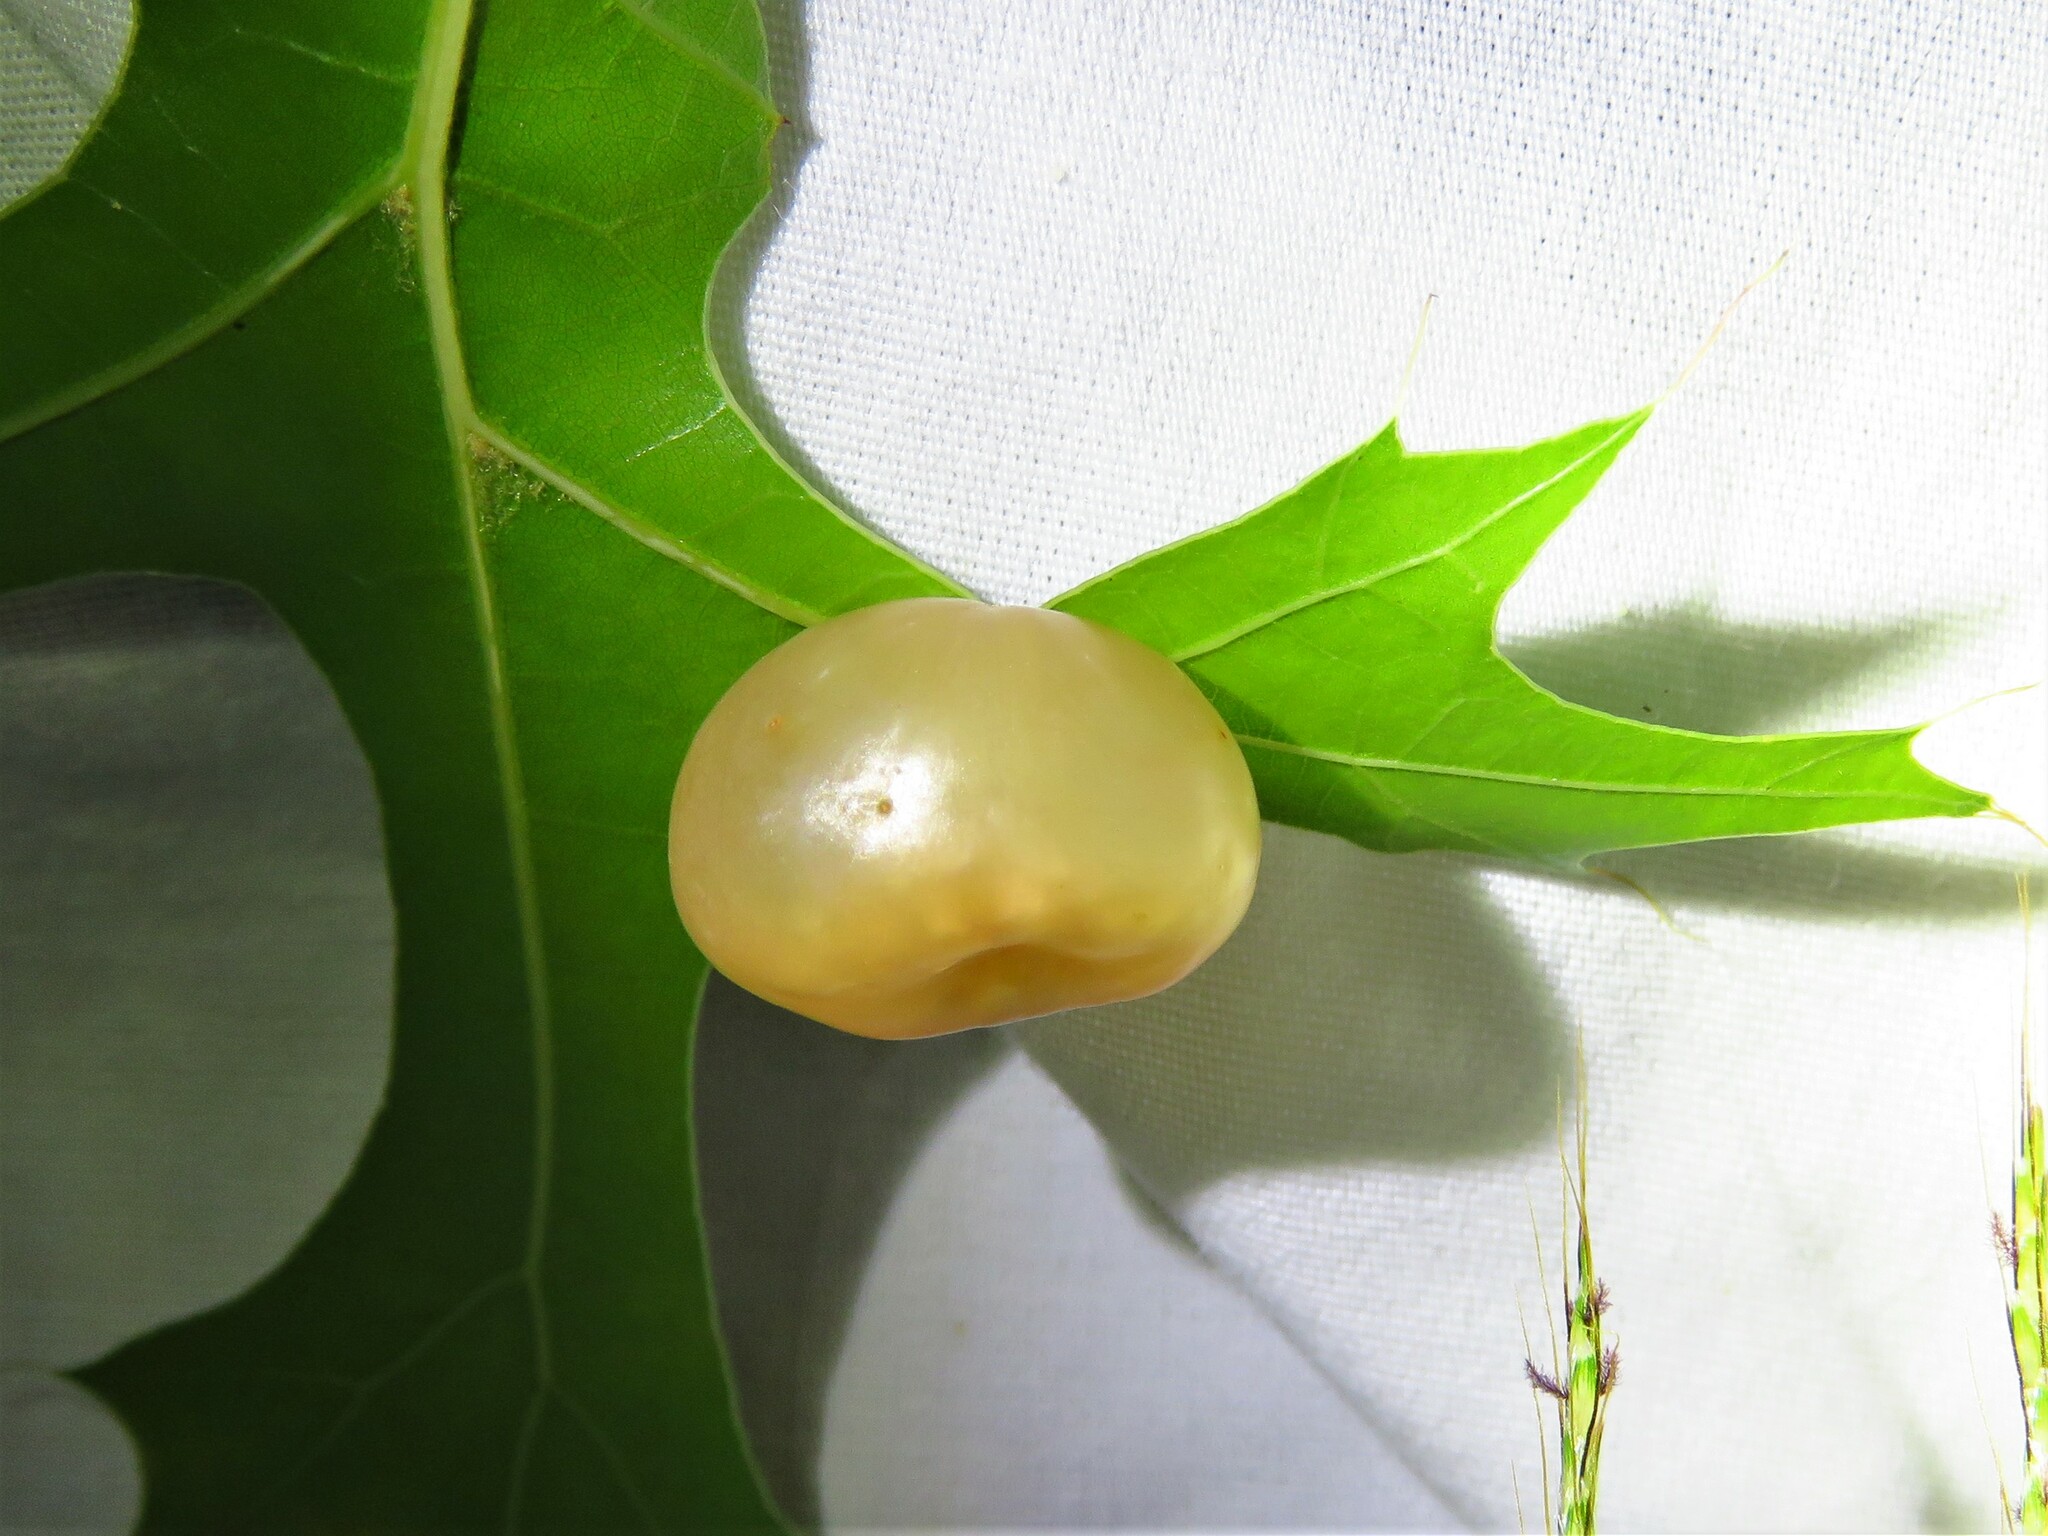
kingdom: Animalia
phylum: Arthropoda
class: Insecta
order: Hymenoptera
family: Cynipidae
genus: Amphibolips
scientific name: Amphibolips
